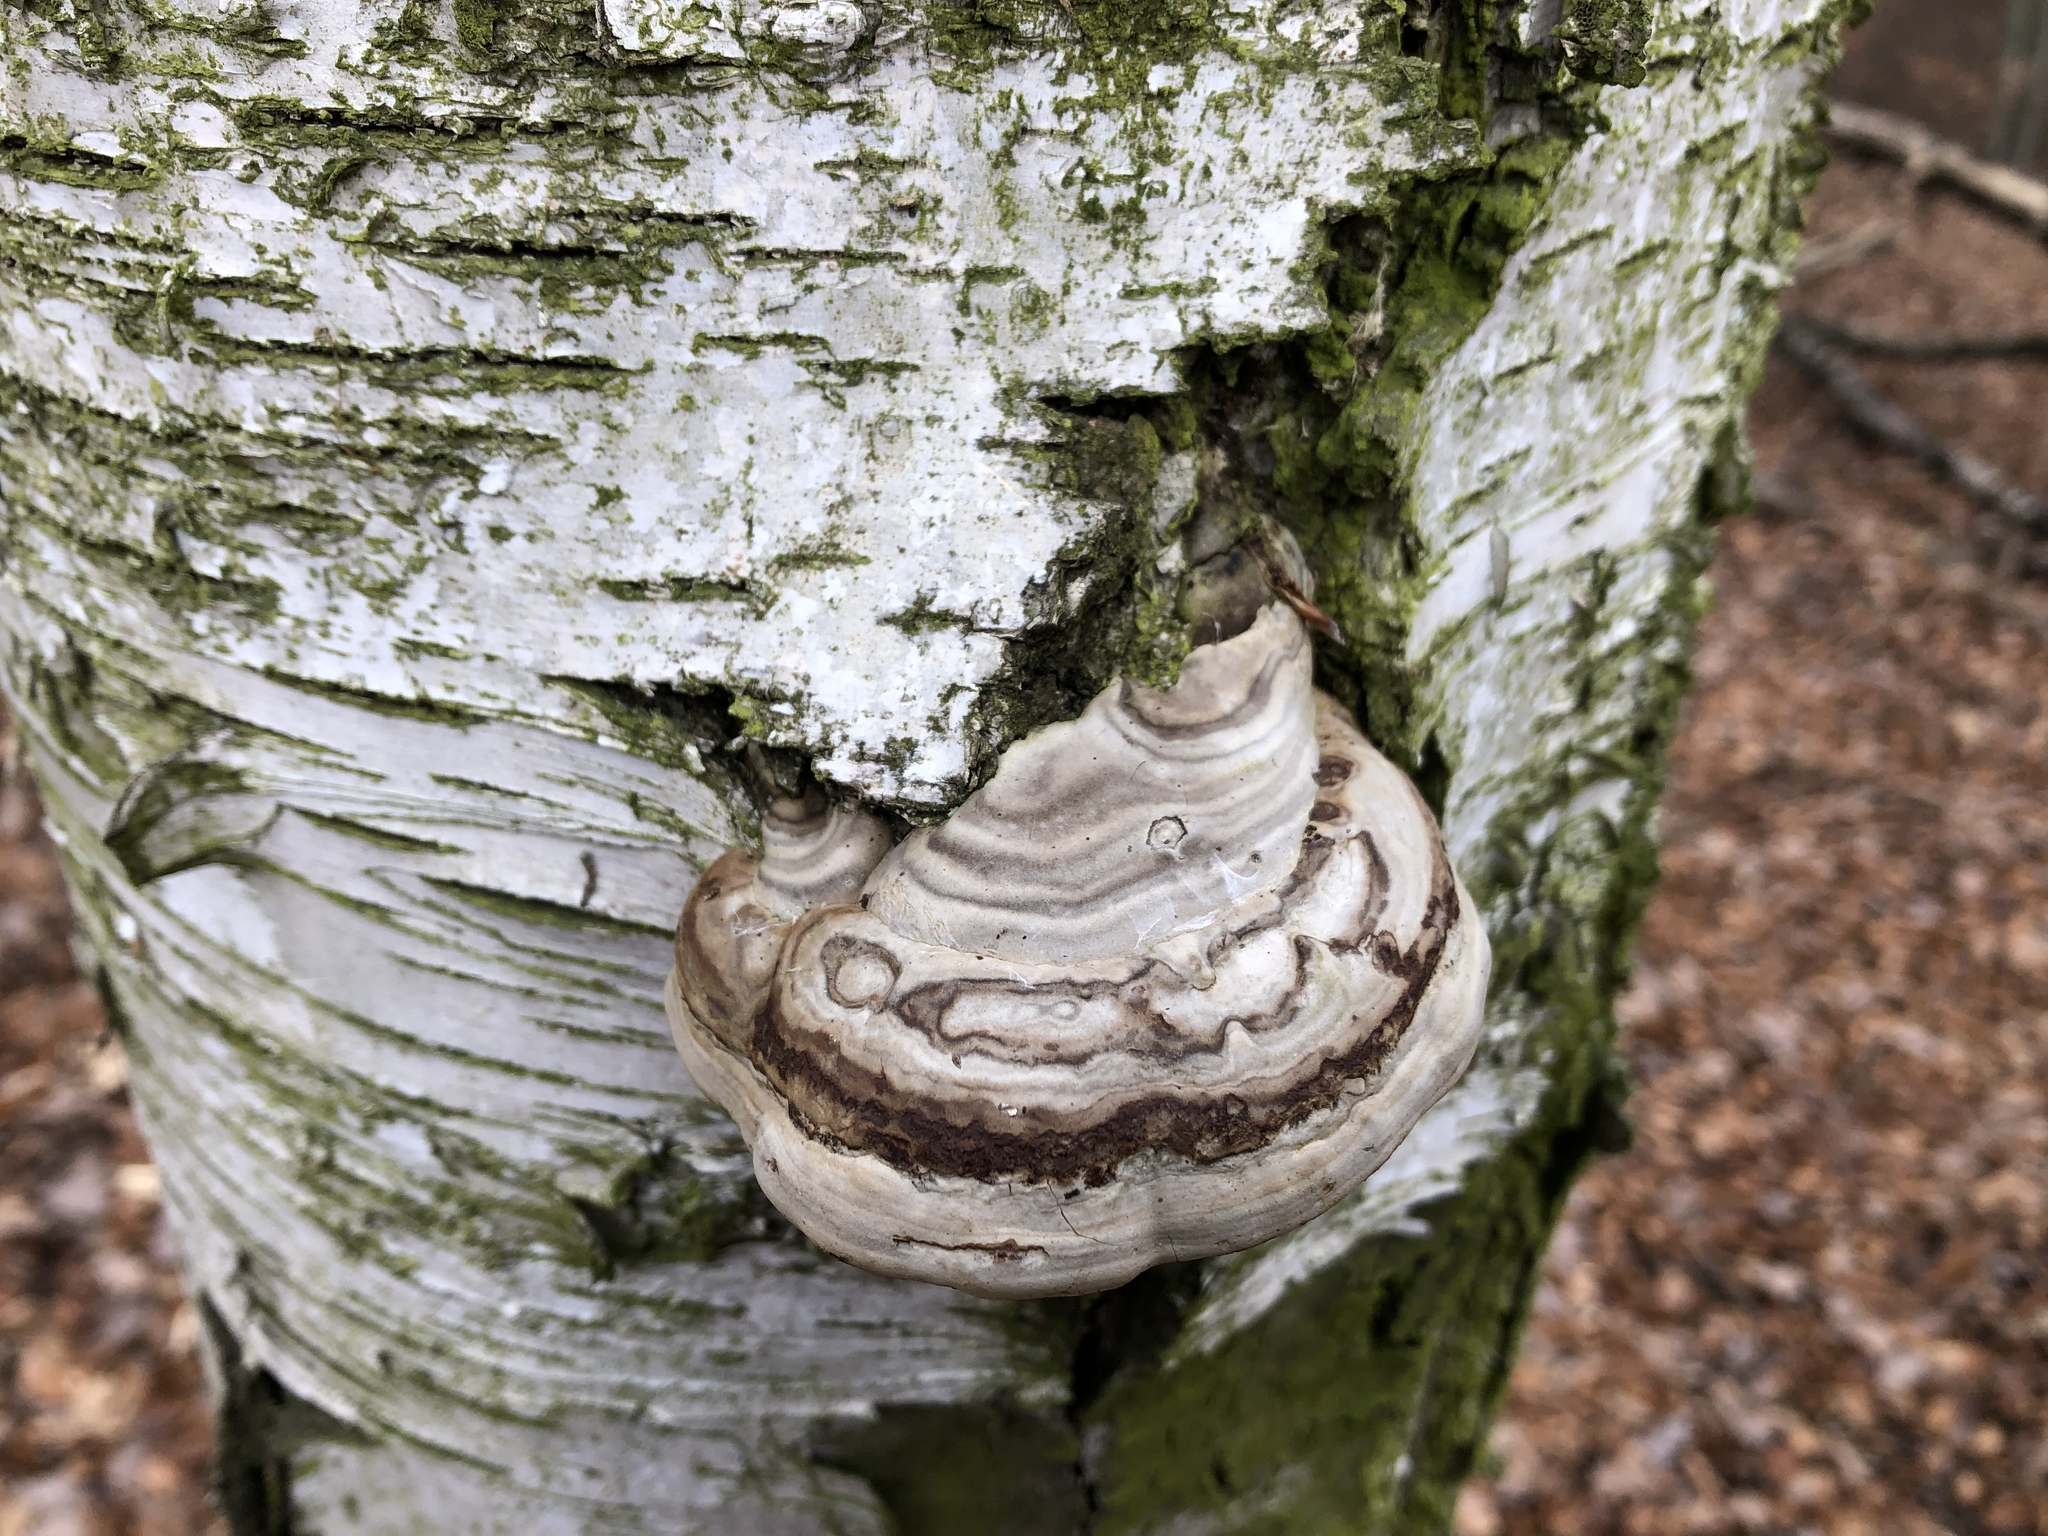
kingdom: Fungi
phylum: Basidiomycota
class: Agaricomycetes
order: Polyporales
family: Polyporaceae
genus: Fomes
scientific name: Fomes fomentarius
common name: Hoof fungus
